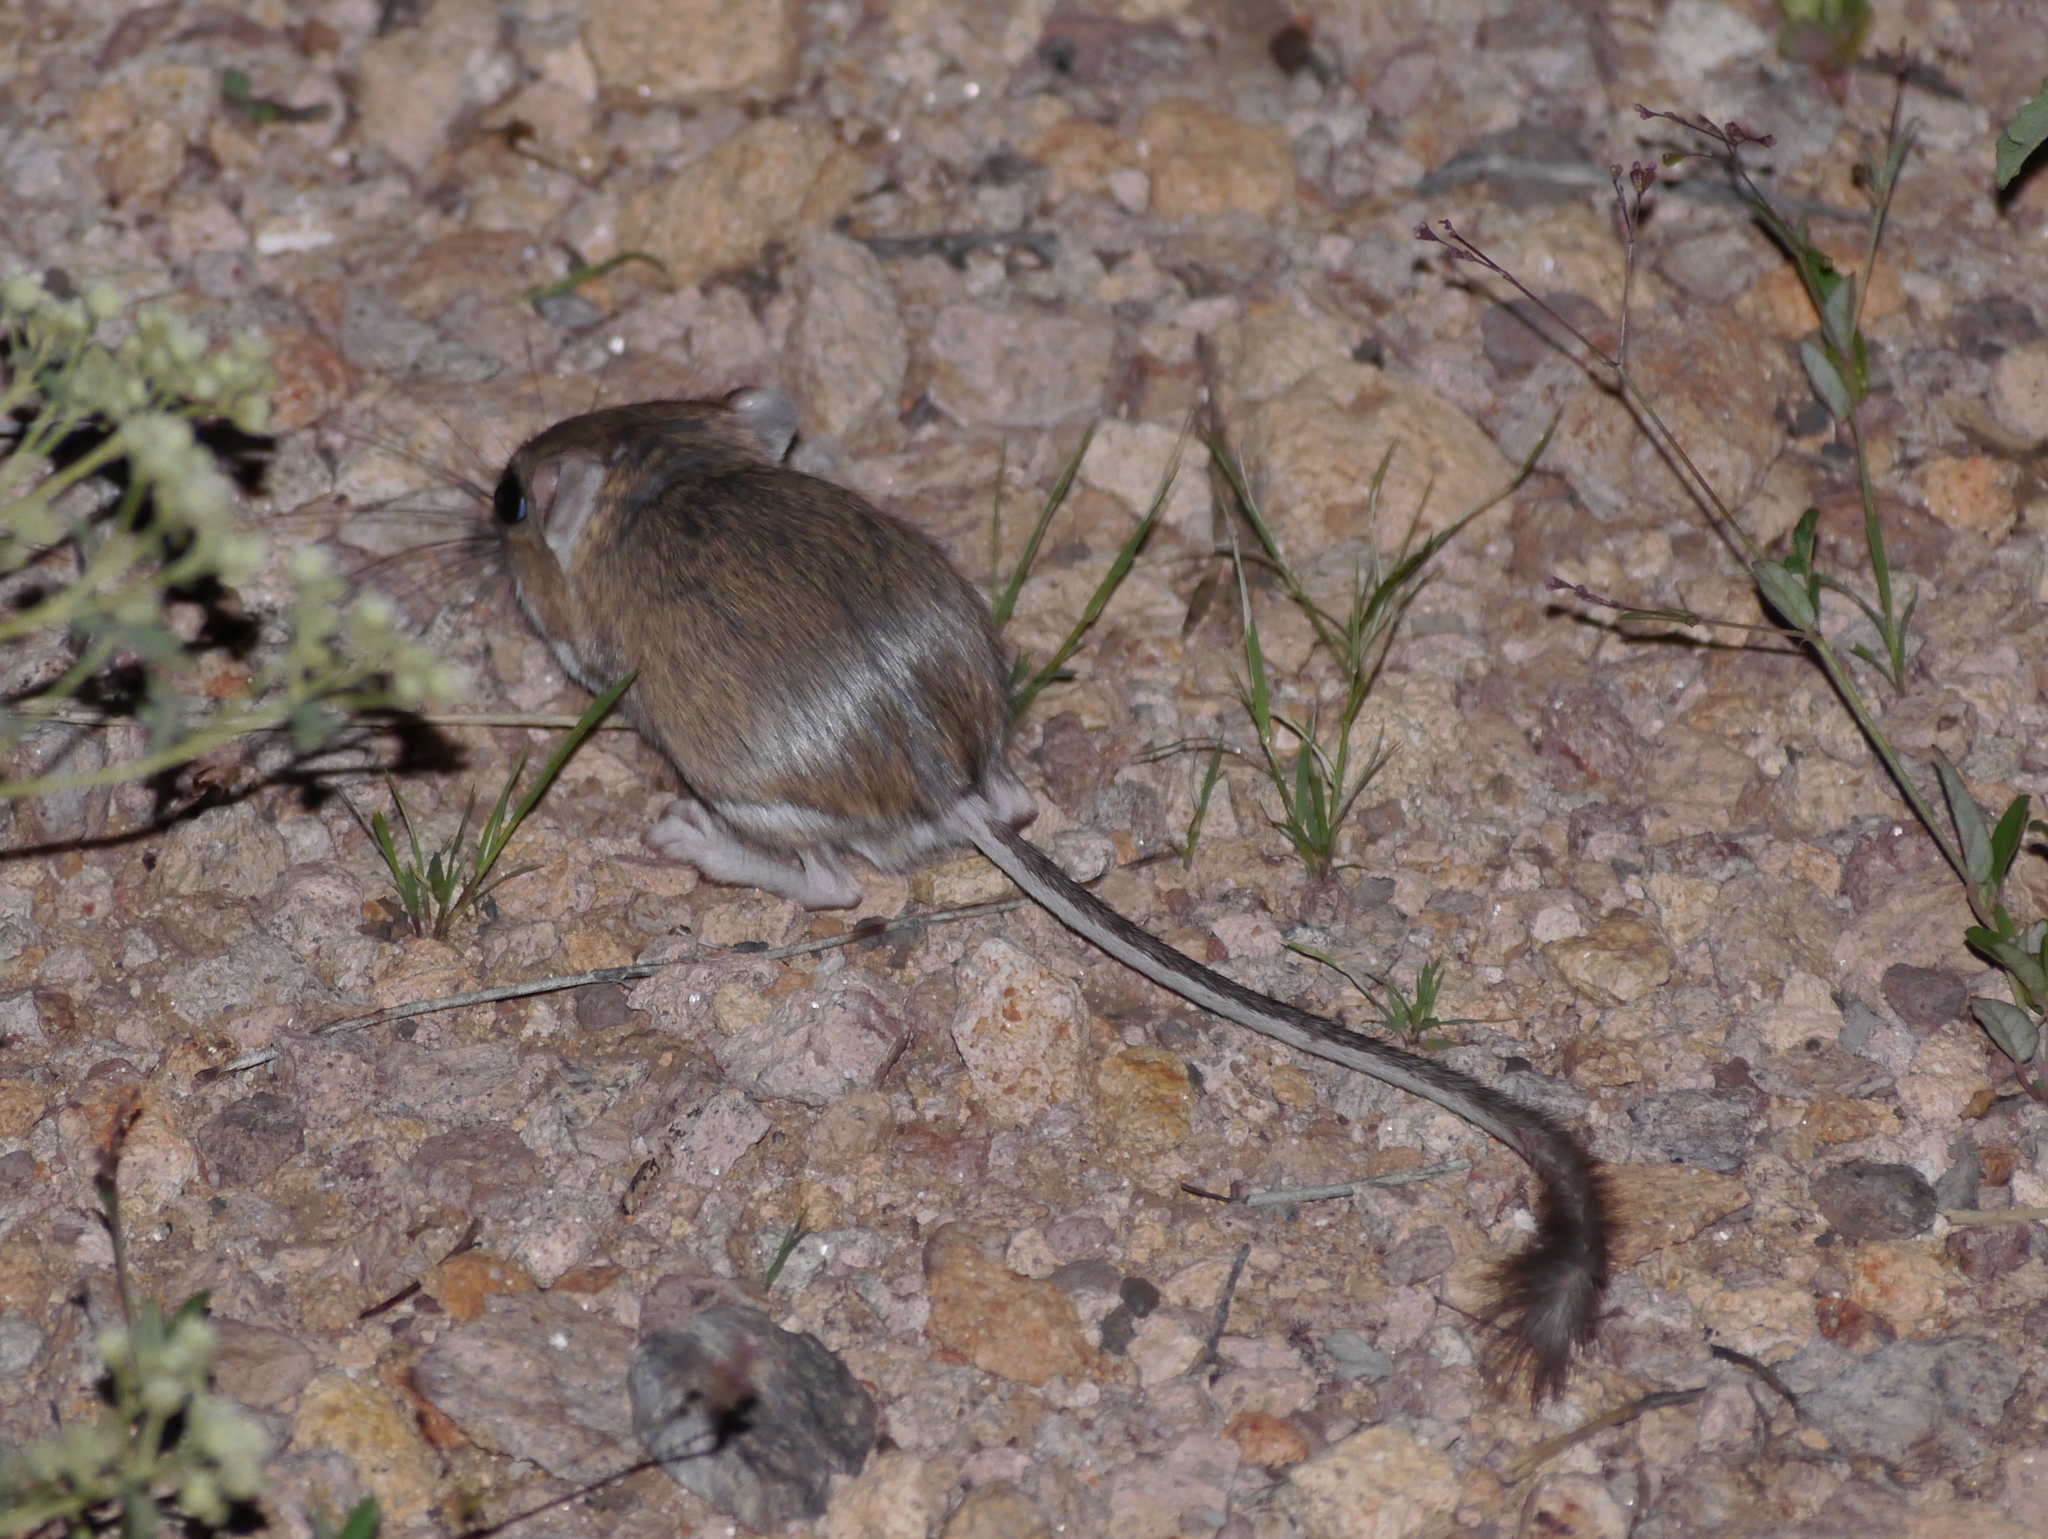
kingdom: Animalia
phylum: Chordata
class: Mammalia
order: Rodentia
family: Heteromyidae
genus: Dipodomys
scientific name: Dipodomys merriami
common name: Merriam's kangaroo rat
